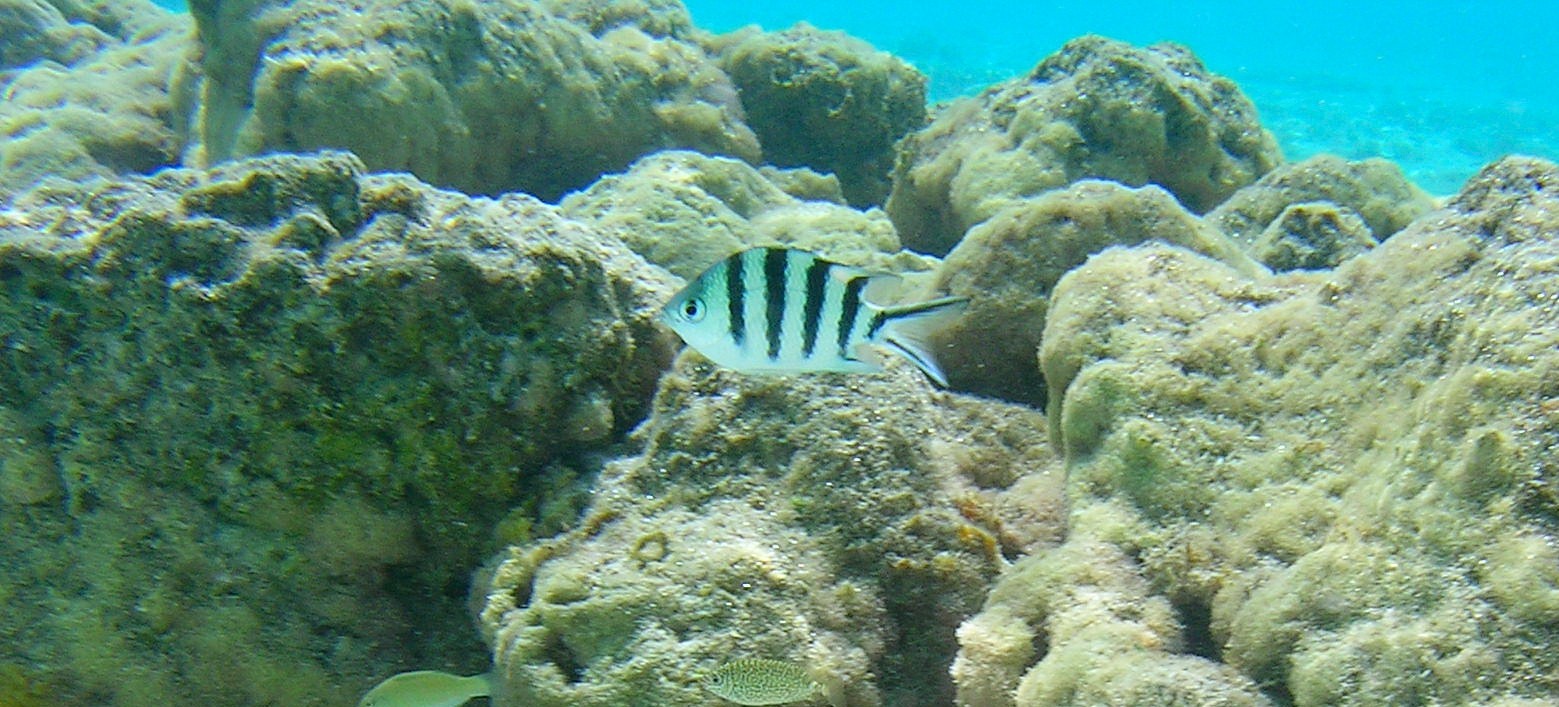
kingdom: Animalia
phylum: Chordata
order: Perciformes
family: Pomacentridae
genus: Abudefduf
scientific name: Abudefduf sexfasciatus
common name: Scissortail sergeant
